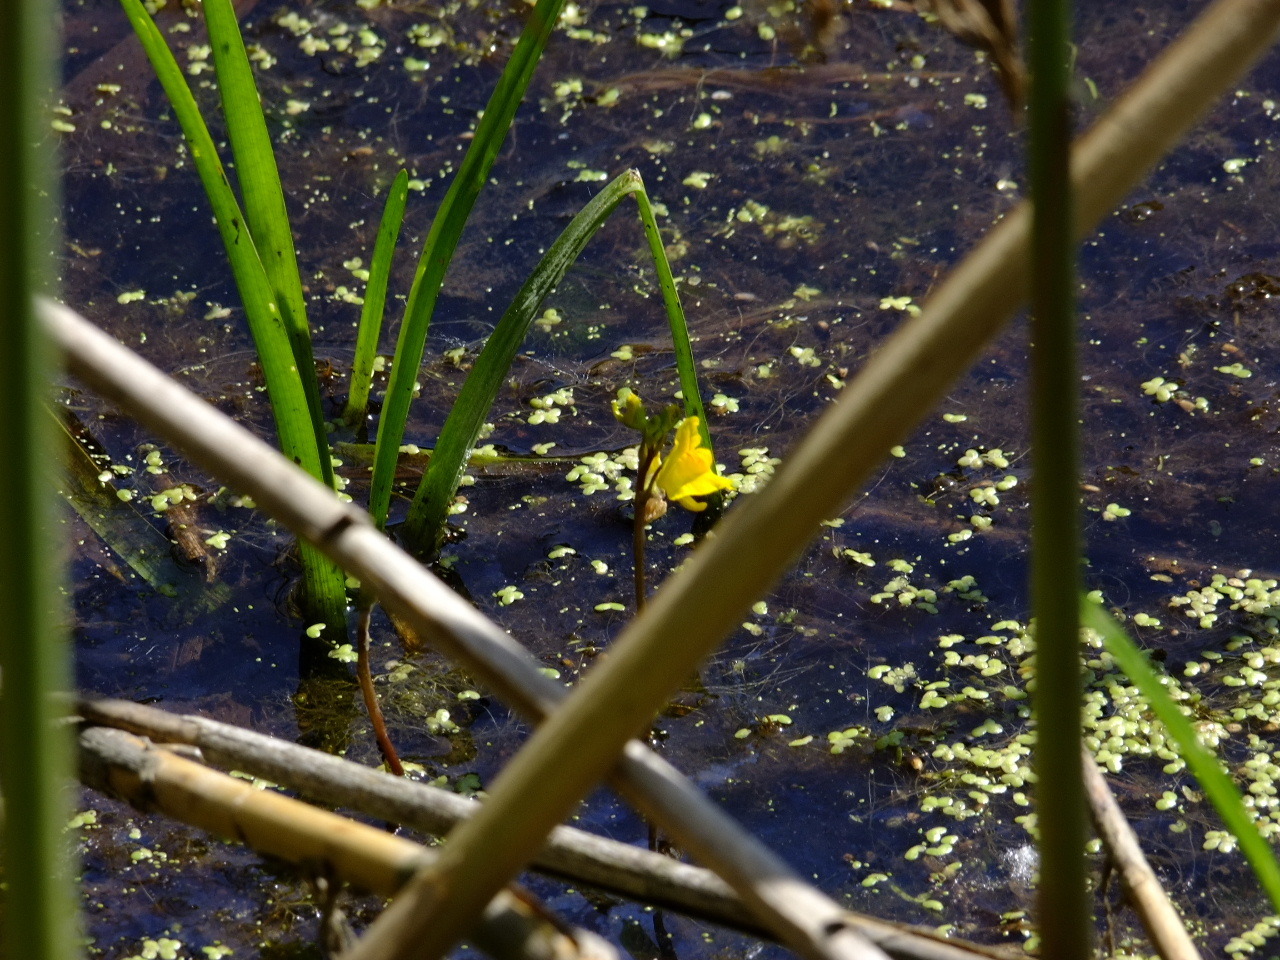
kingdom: Plantae
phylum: Tracheophyta
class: Magnoliopsida
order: Lamiales
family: Lentibulariaceae
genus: Utricularia
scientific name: Utricularia macrorhiza
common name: Common bladderwort
